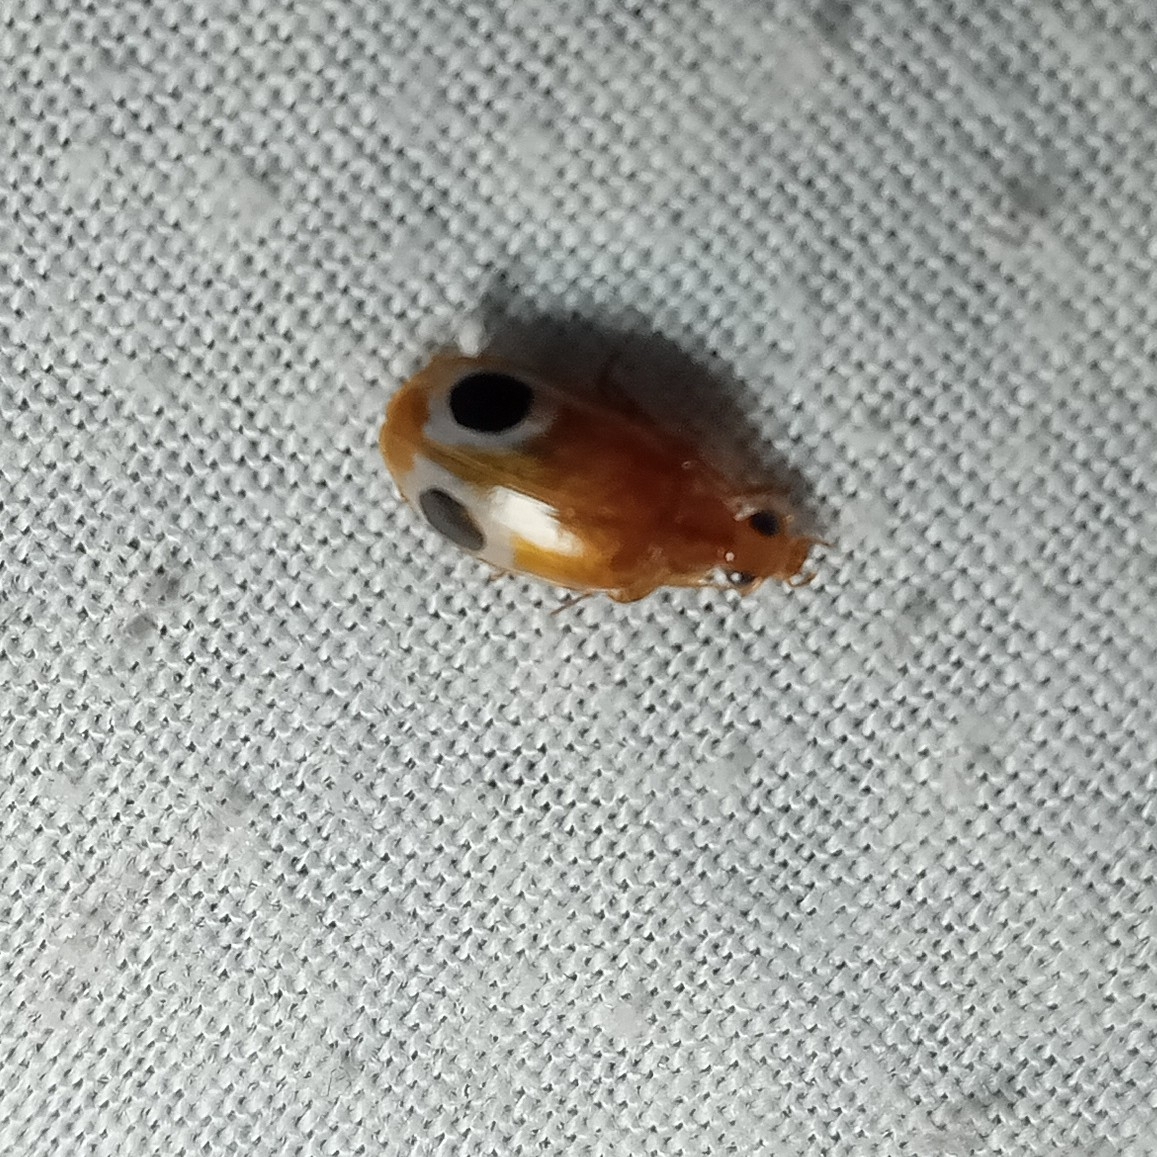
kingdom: Animalia
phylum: Arthropoda
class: Insecta
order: Coleoptera
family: Carabidae
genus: Lebidia
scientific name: Lebidia bioculata
